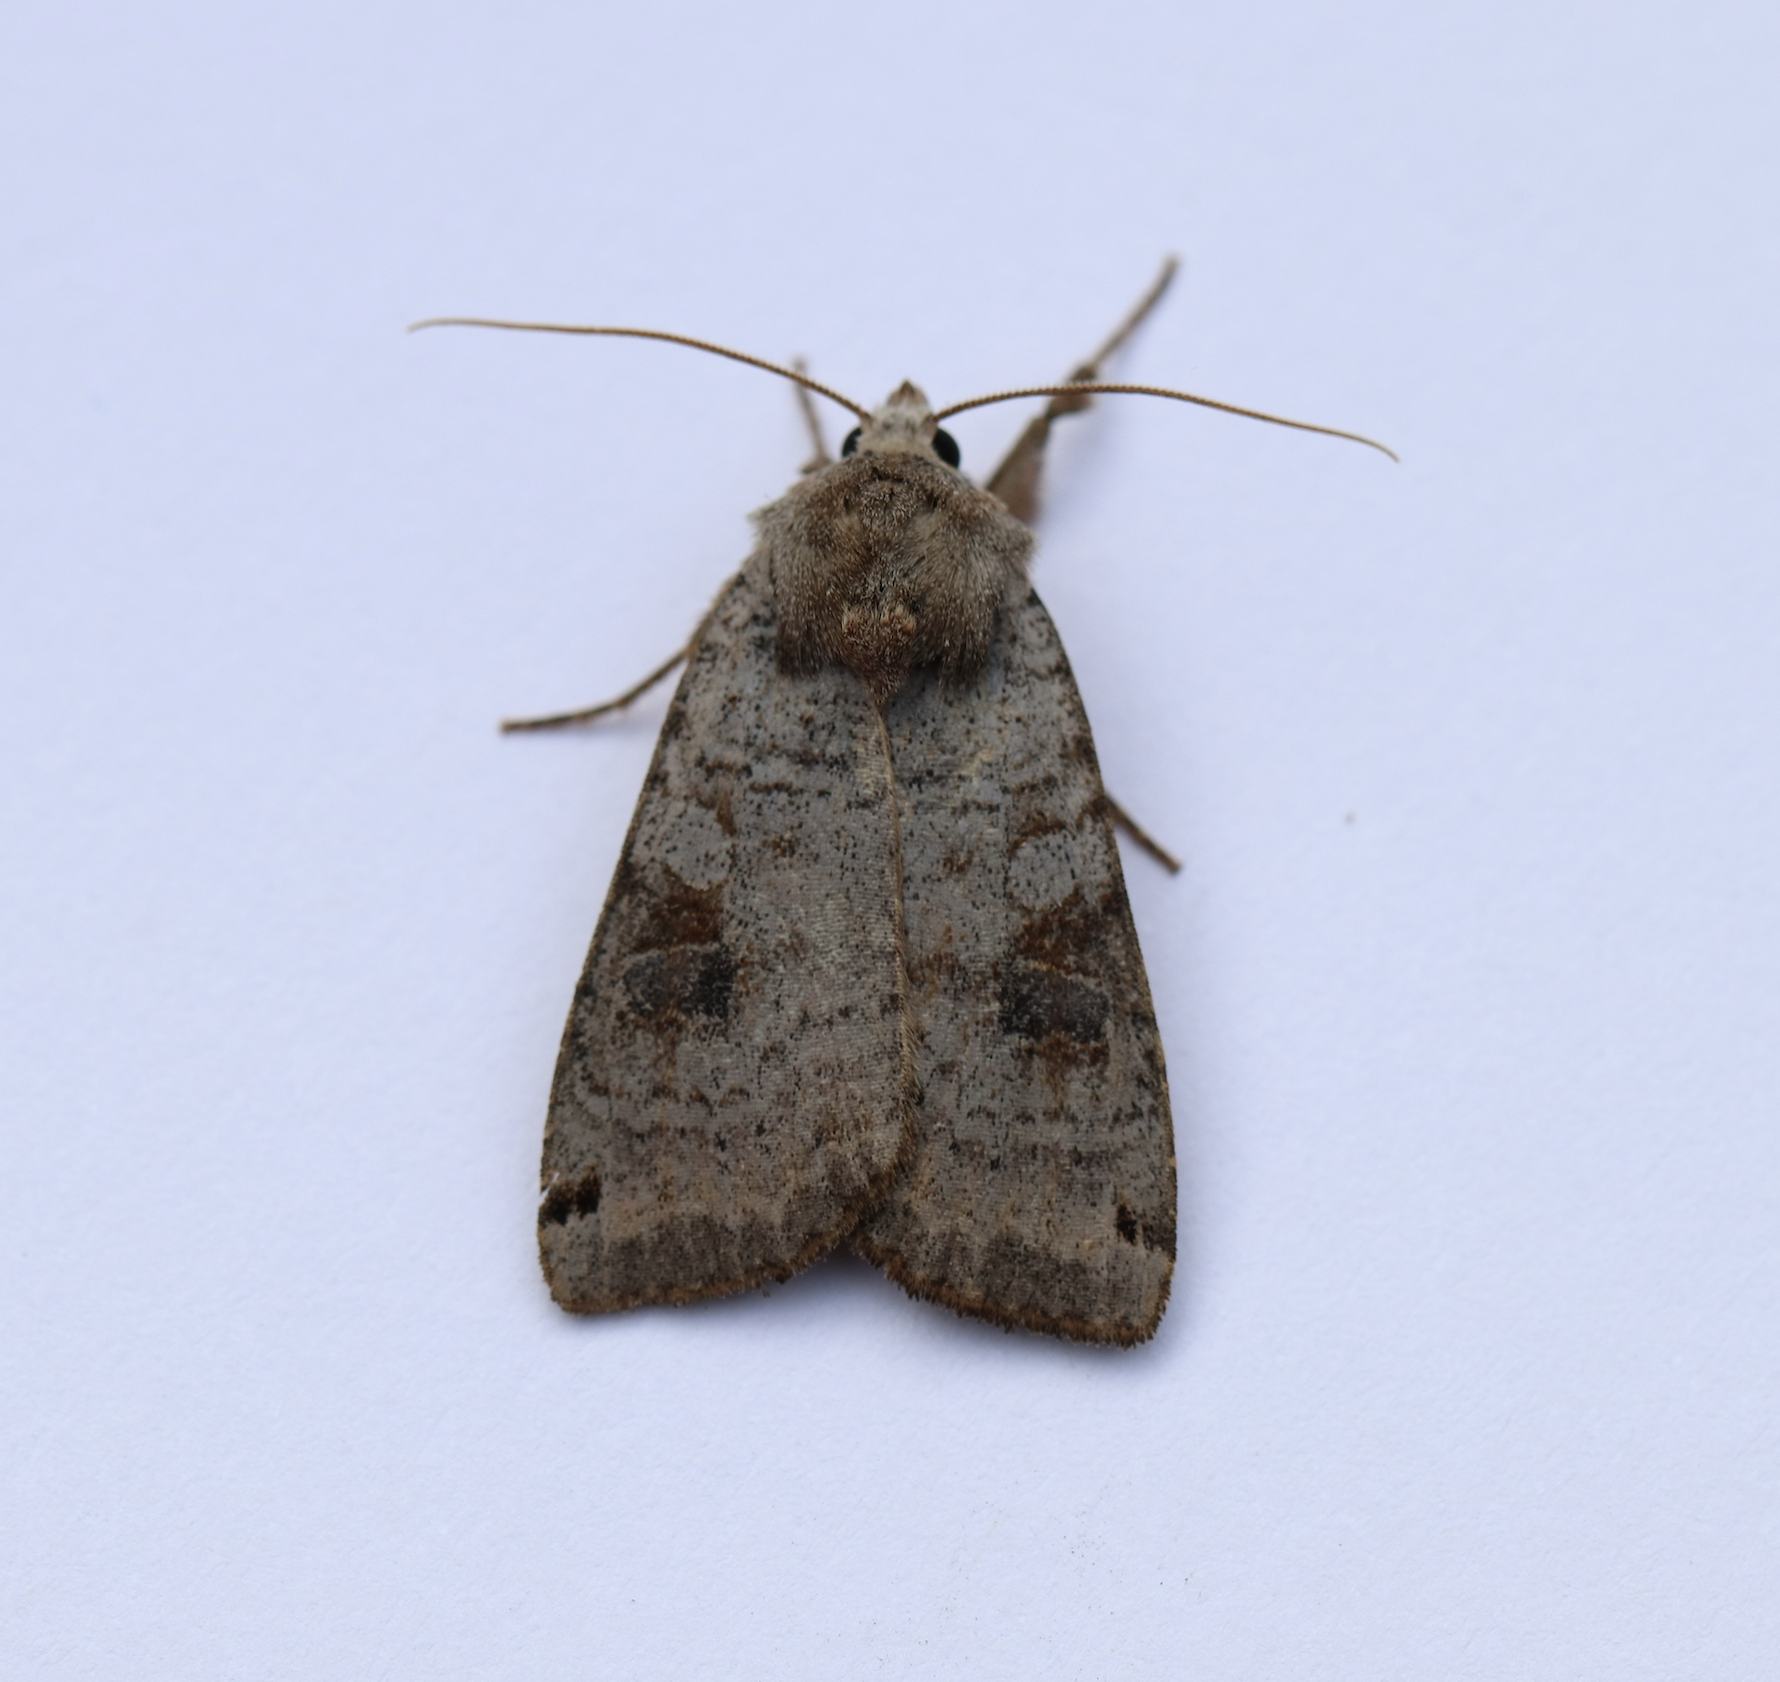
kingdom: Animalia
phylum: Arthropoda
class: Insecta
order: Lepidoptera
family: Noctuidae
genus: Xestia
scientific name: Xestia smithii
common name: Smith's dart
